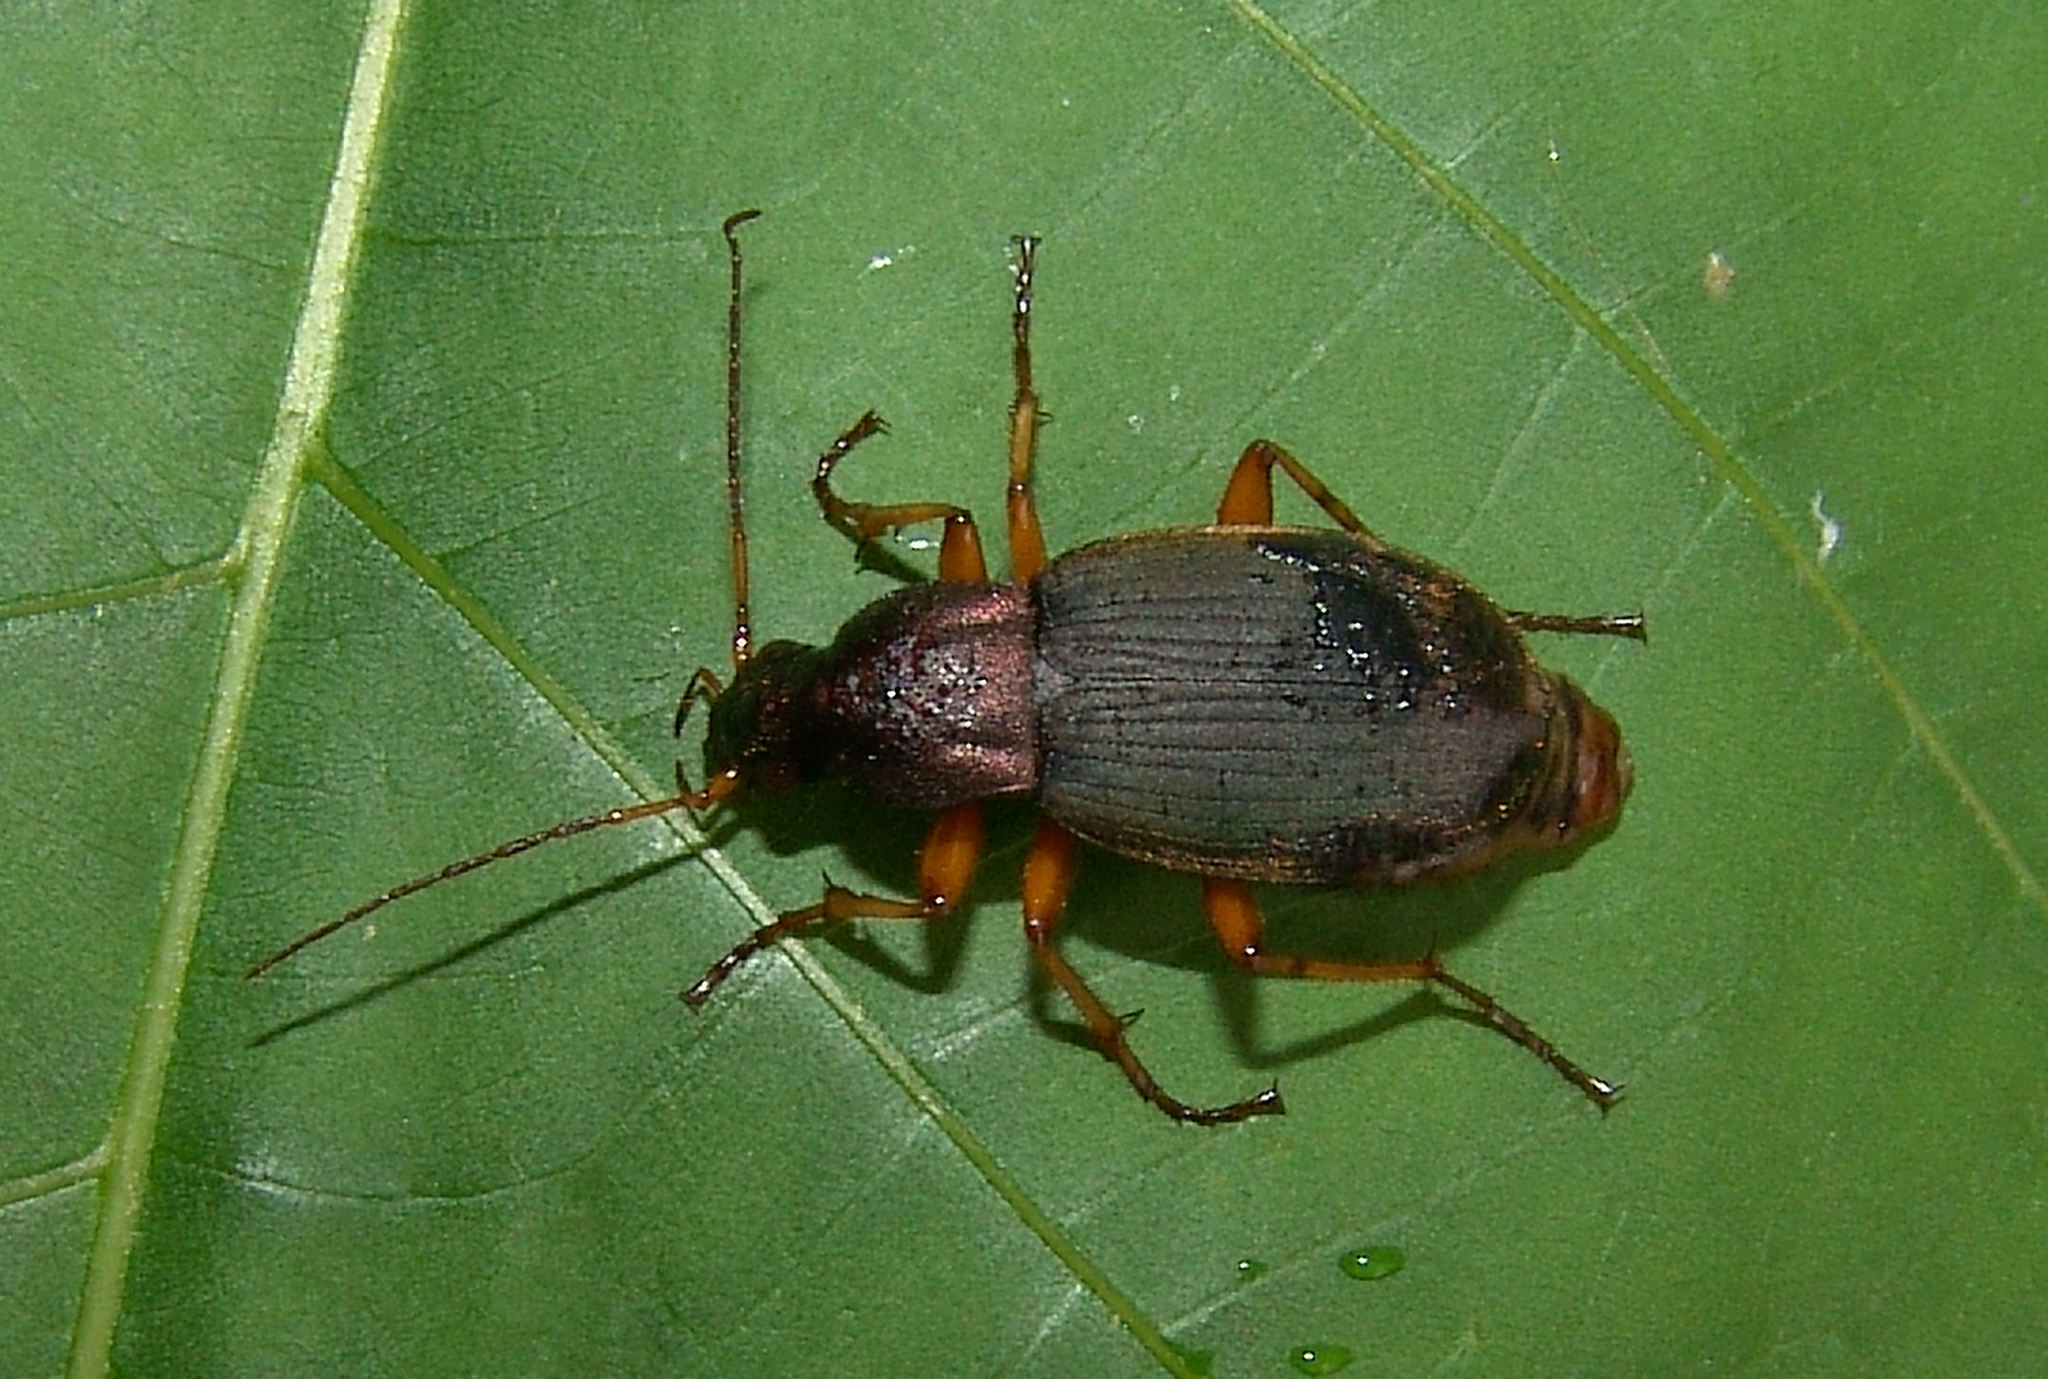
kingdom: Animalia
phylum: Arthropoda
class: Insecta
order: Coleoptera
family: Carabidae
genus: Chlaenius
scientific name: Chlaenius aestivus
